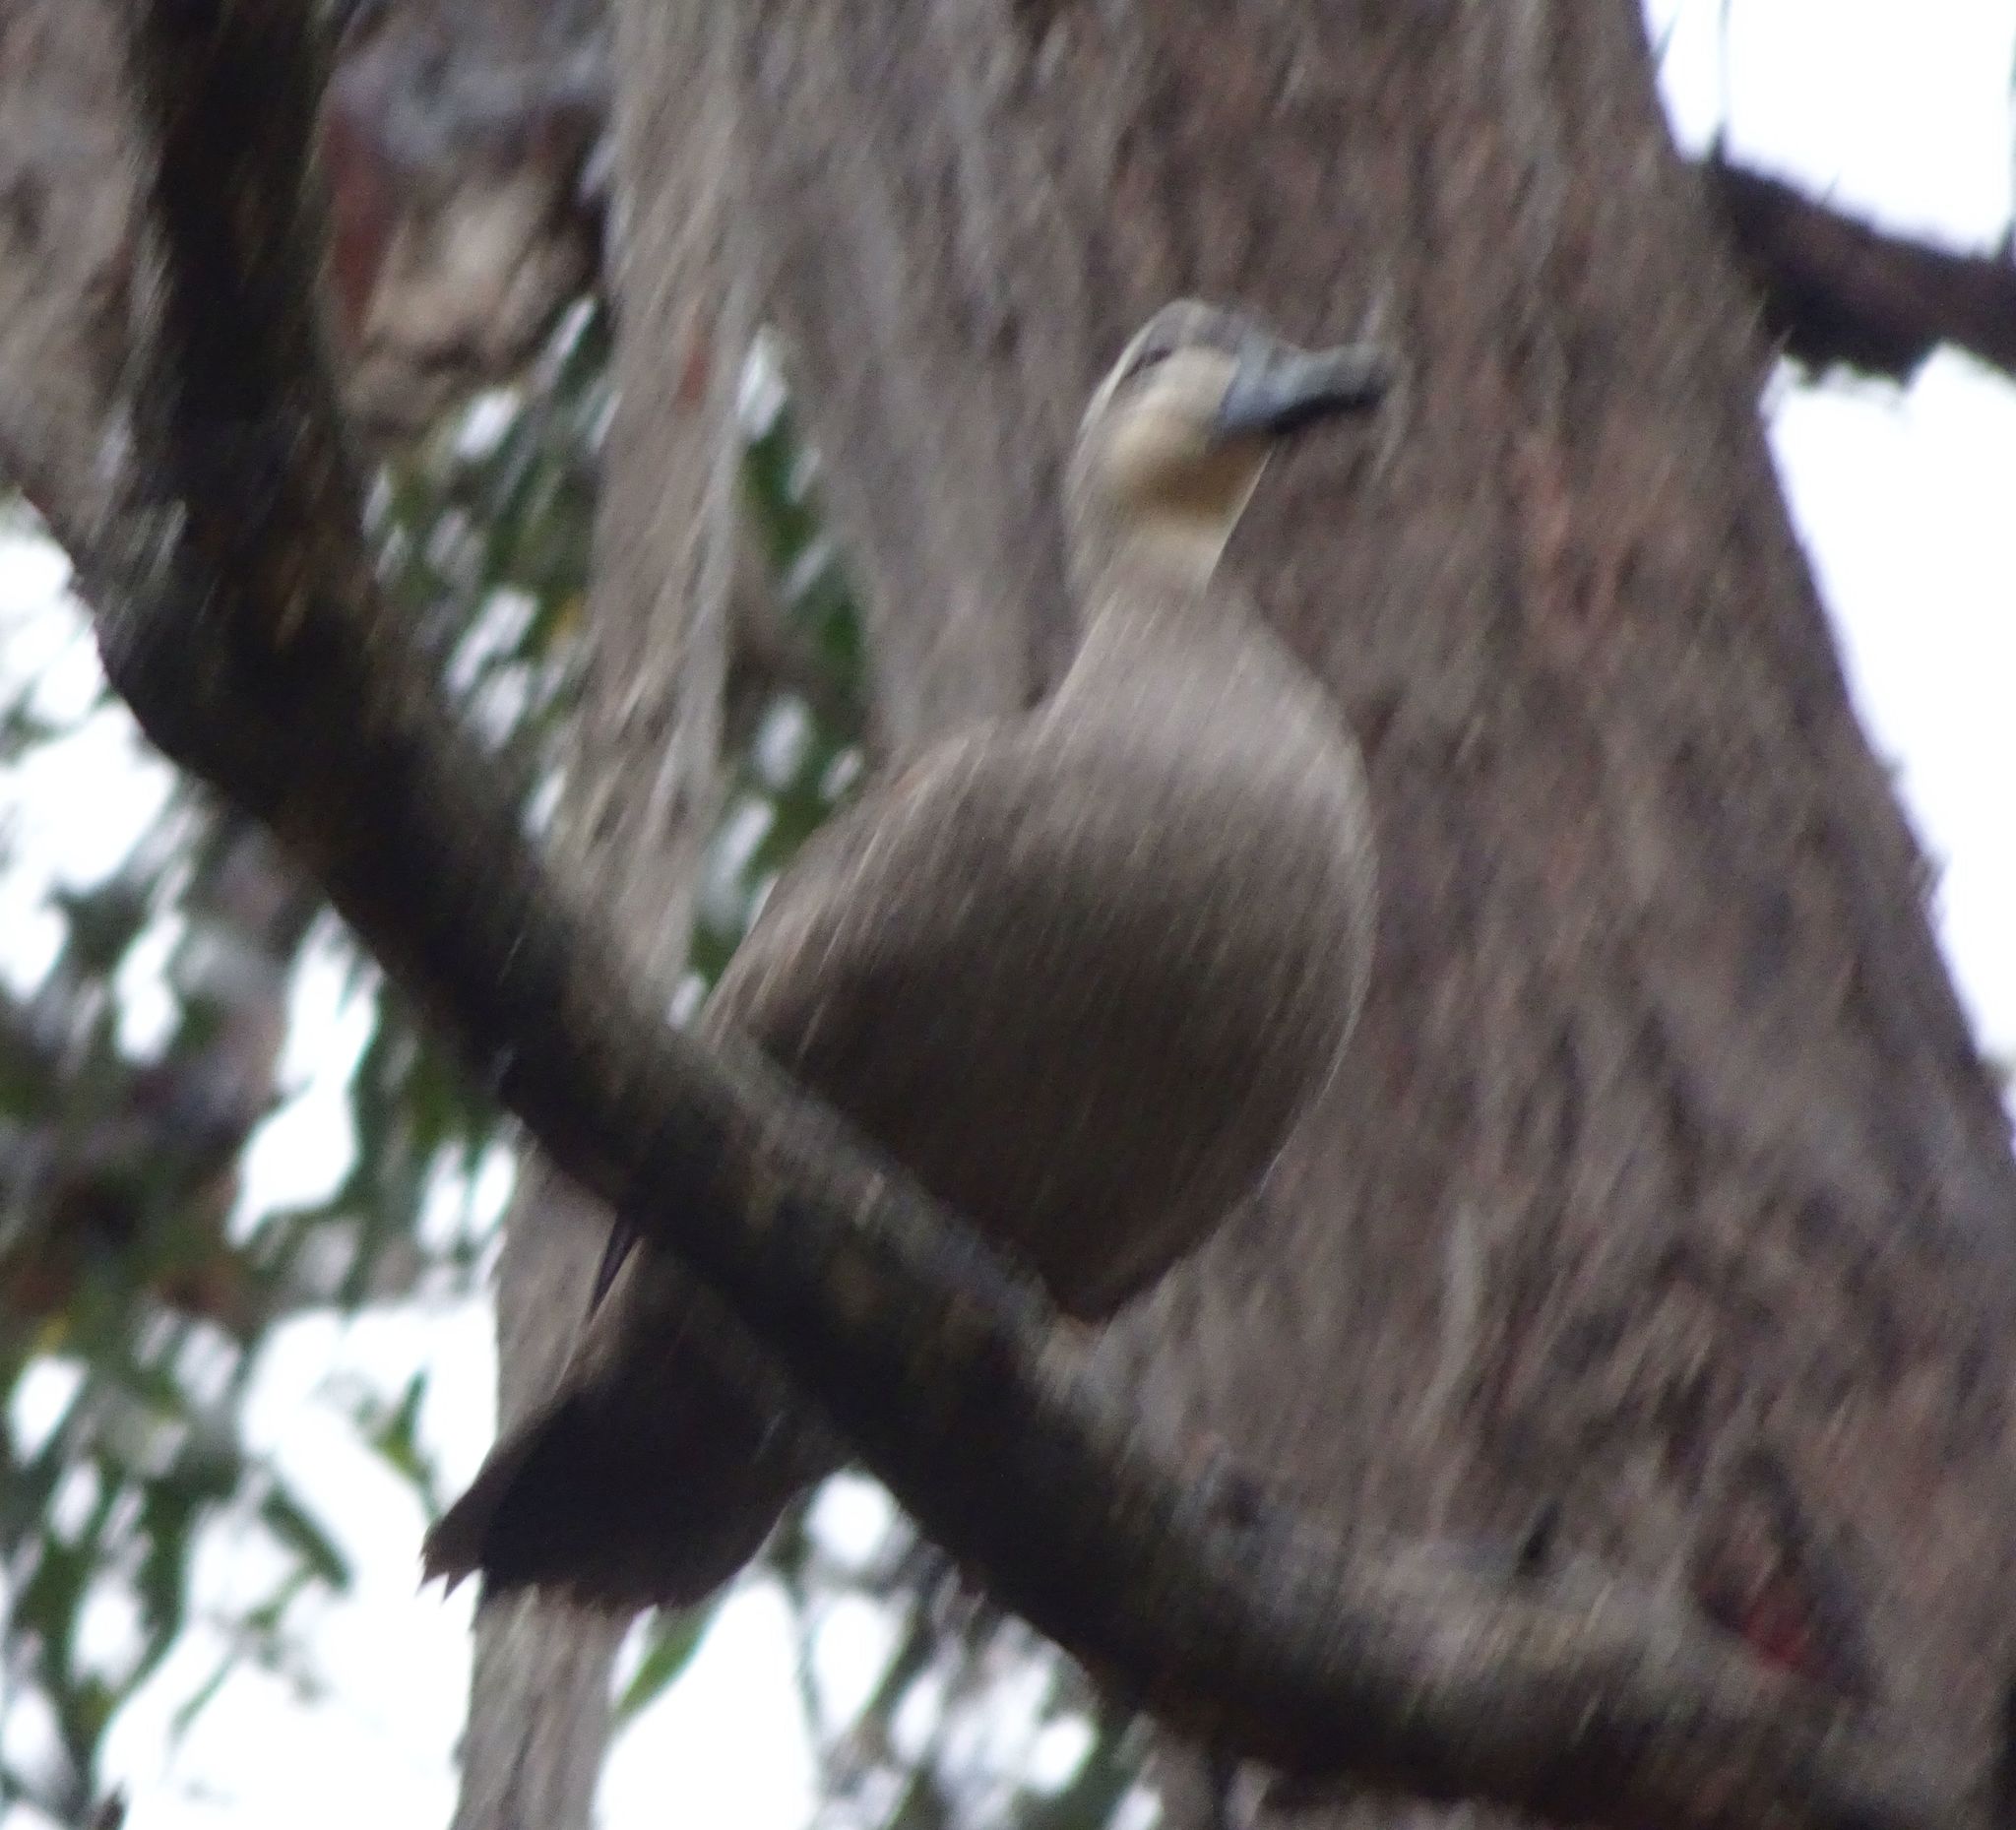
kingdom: Animalia
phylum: Chordata
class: Aves
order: Anseriformes
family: Anatidae
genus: Anas
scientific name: Anas superciliosa
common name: Pacific black duck
